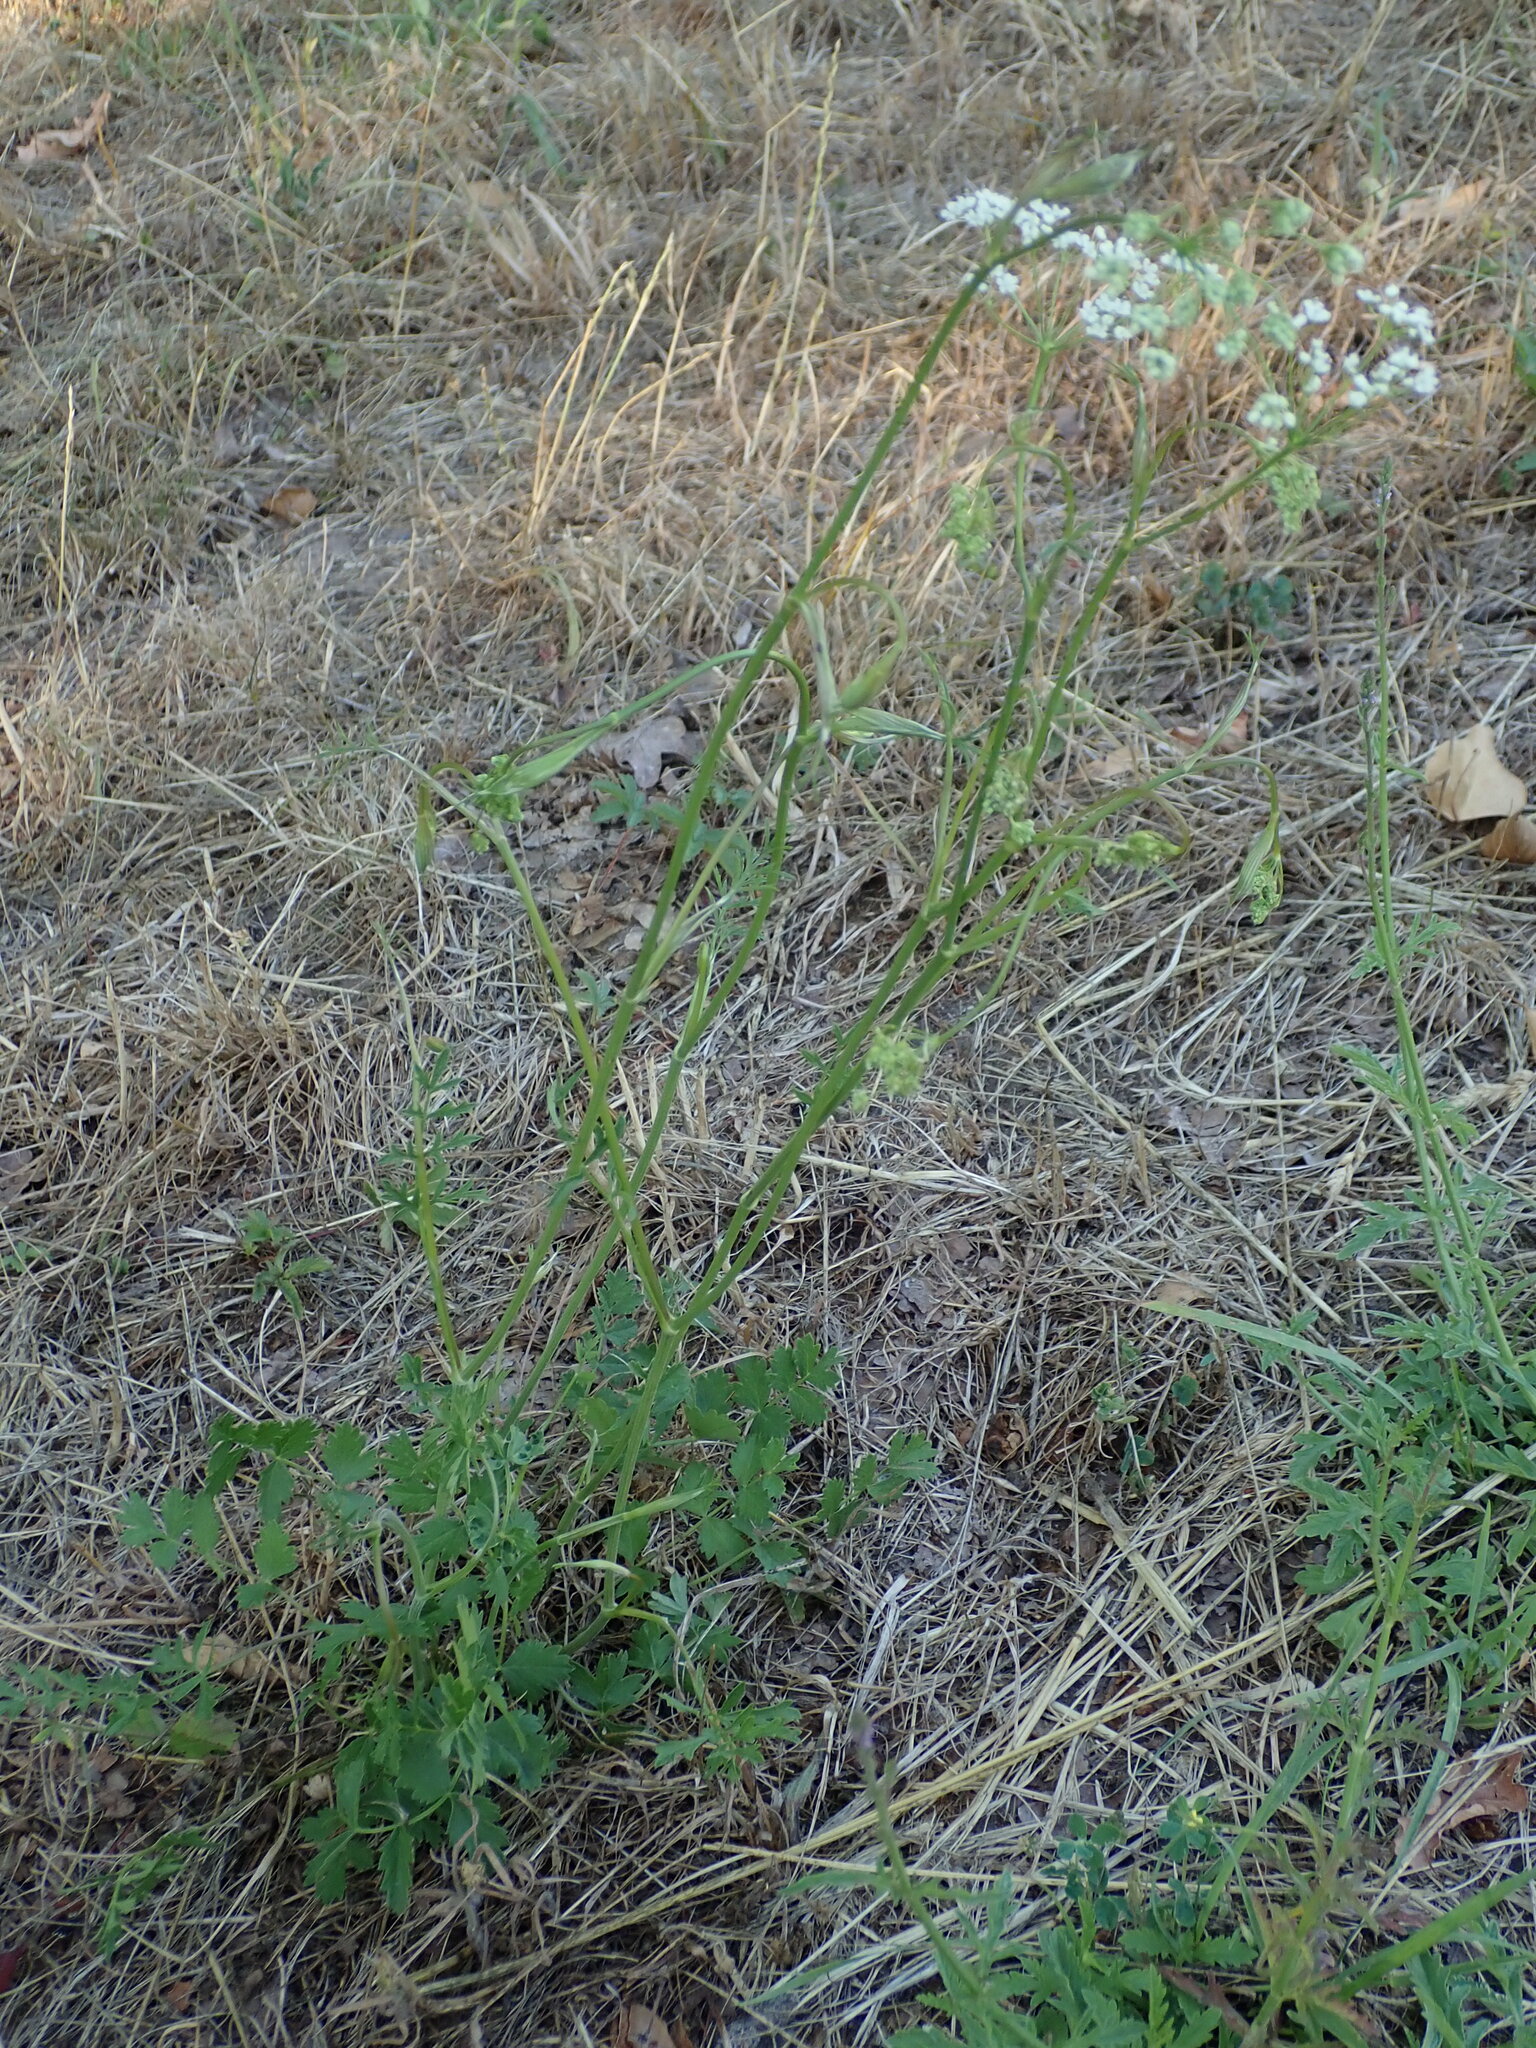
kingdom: Plantae
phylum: Tracheophyta
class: Magnoliopsida
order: Apiales
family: Apiaceae
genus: Pimpinella
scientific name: Pimpinella saxifraga
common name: Burnet-saxifrage
